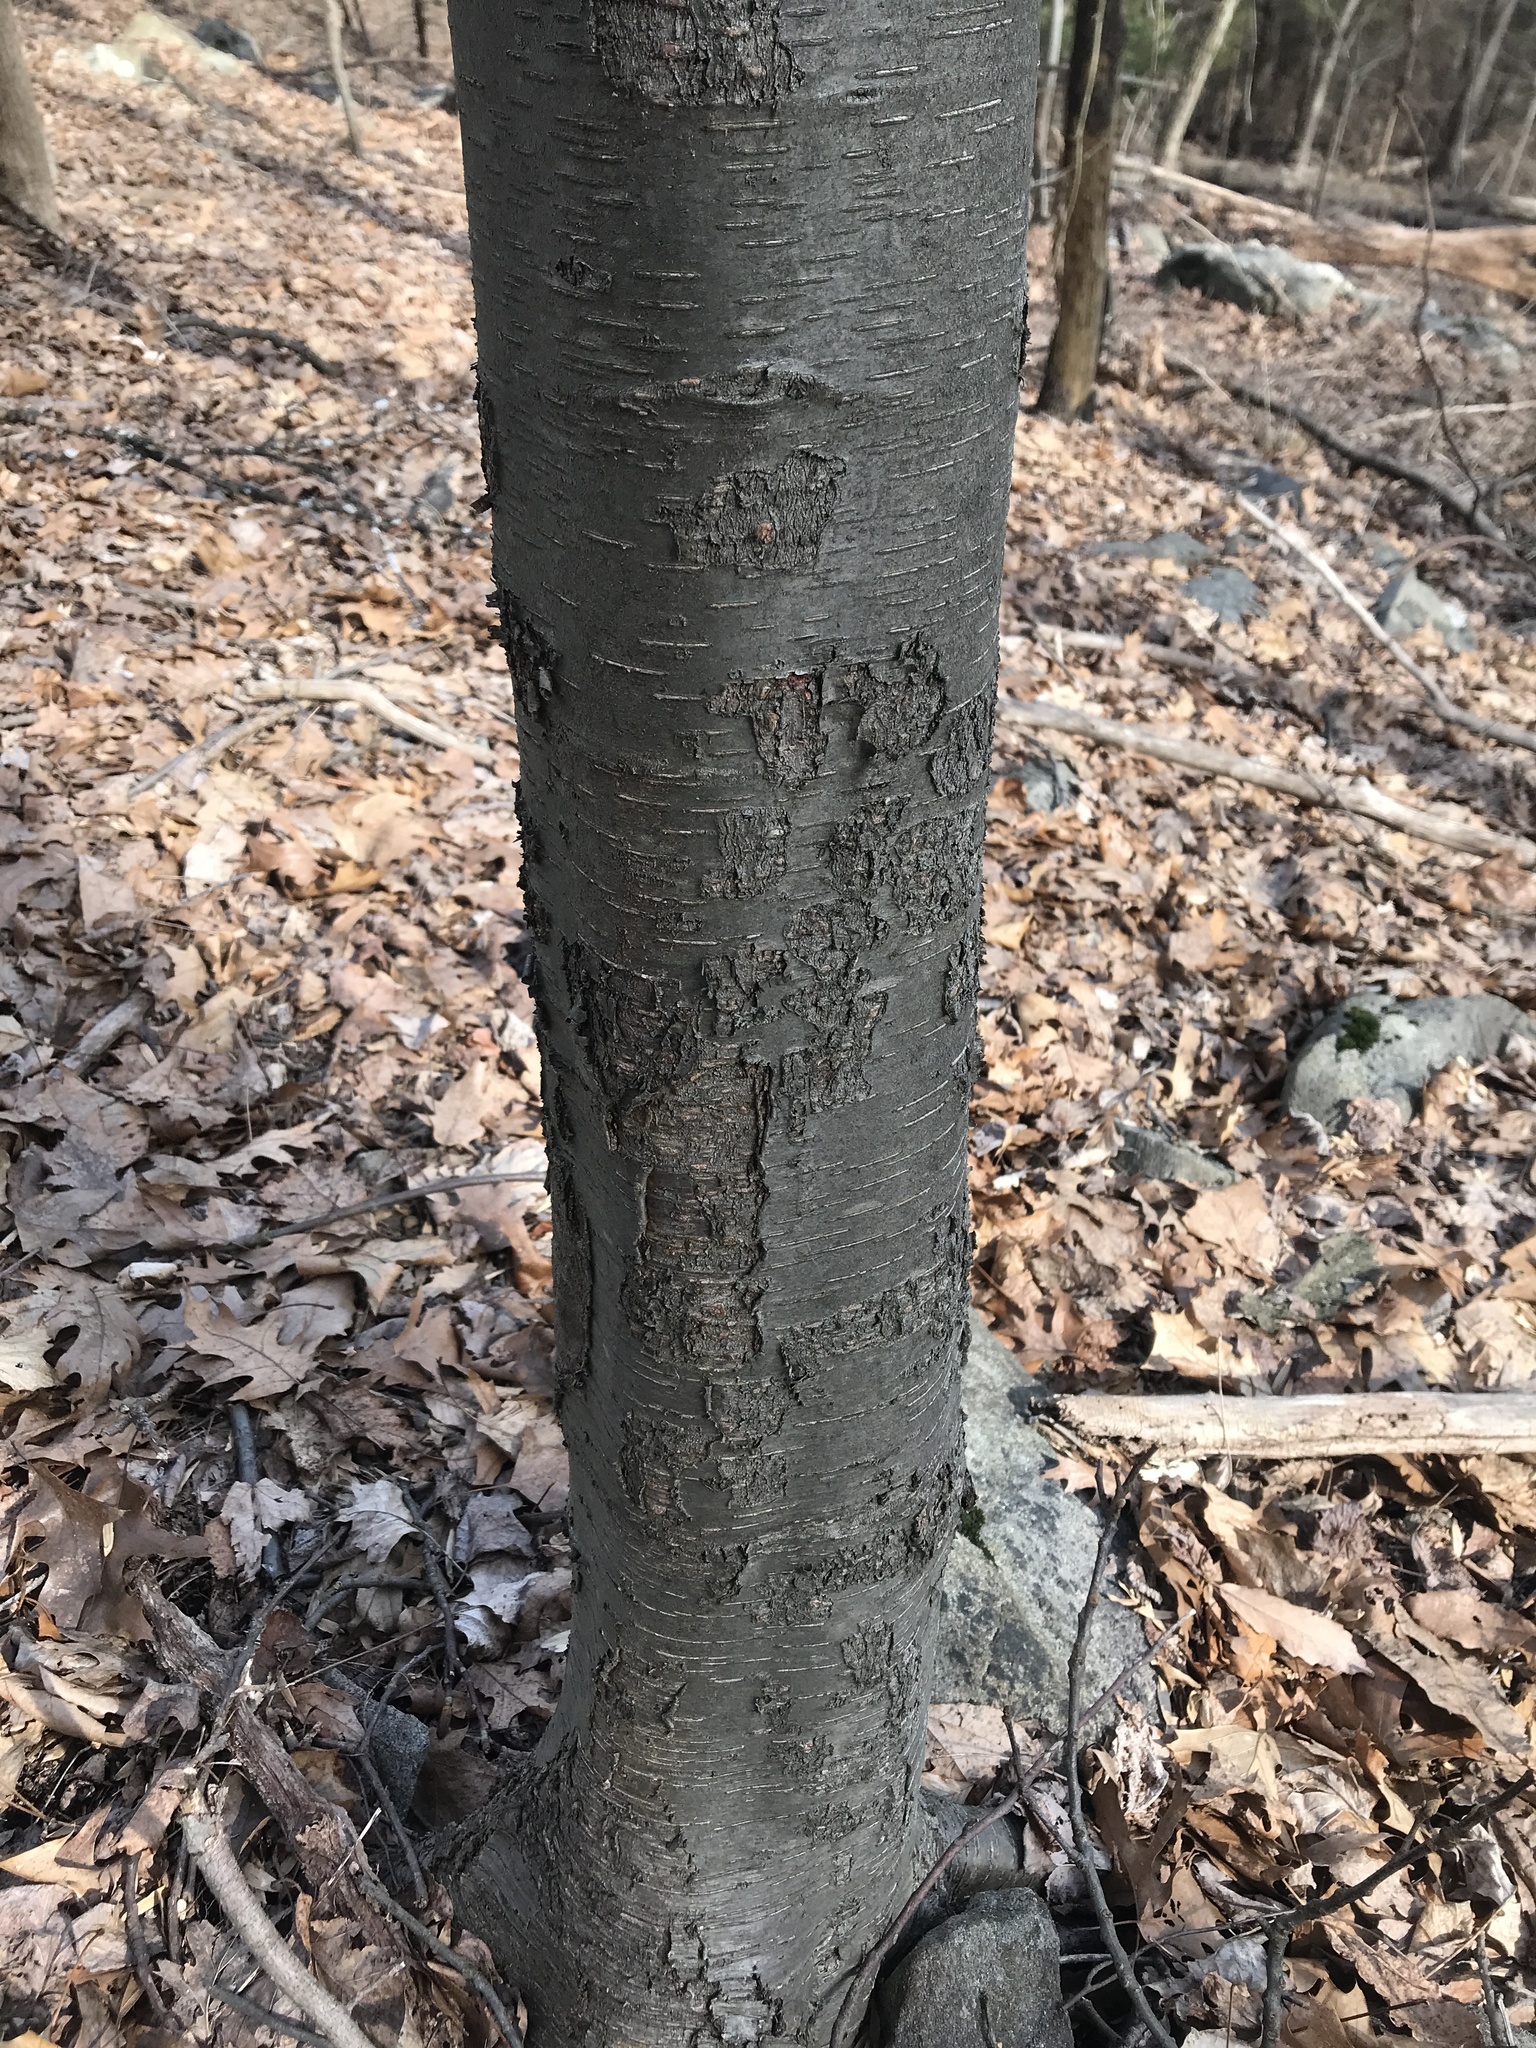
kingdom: Plantae
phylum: Tracheophyta
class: Magnoliopsida
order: Fagales
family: Betulaceae
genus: Betula
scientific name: Betula lenta
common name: Black birch
